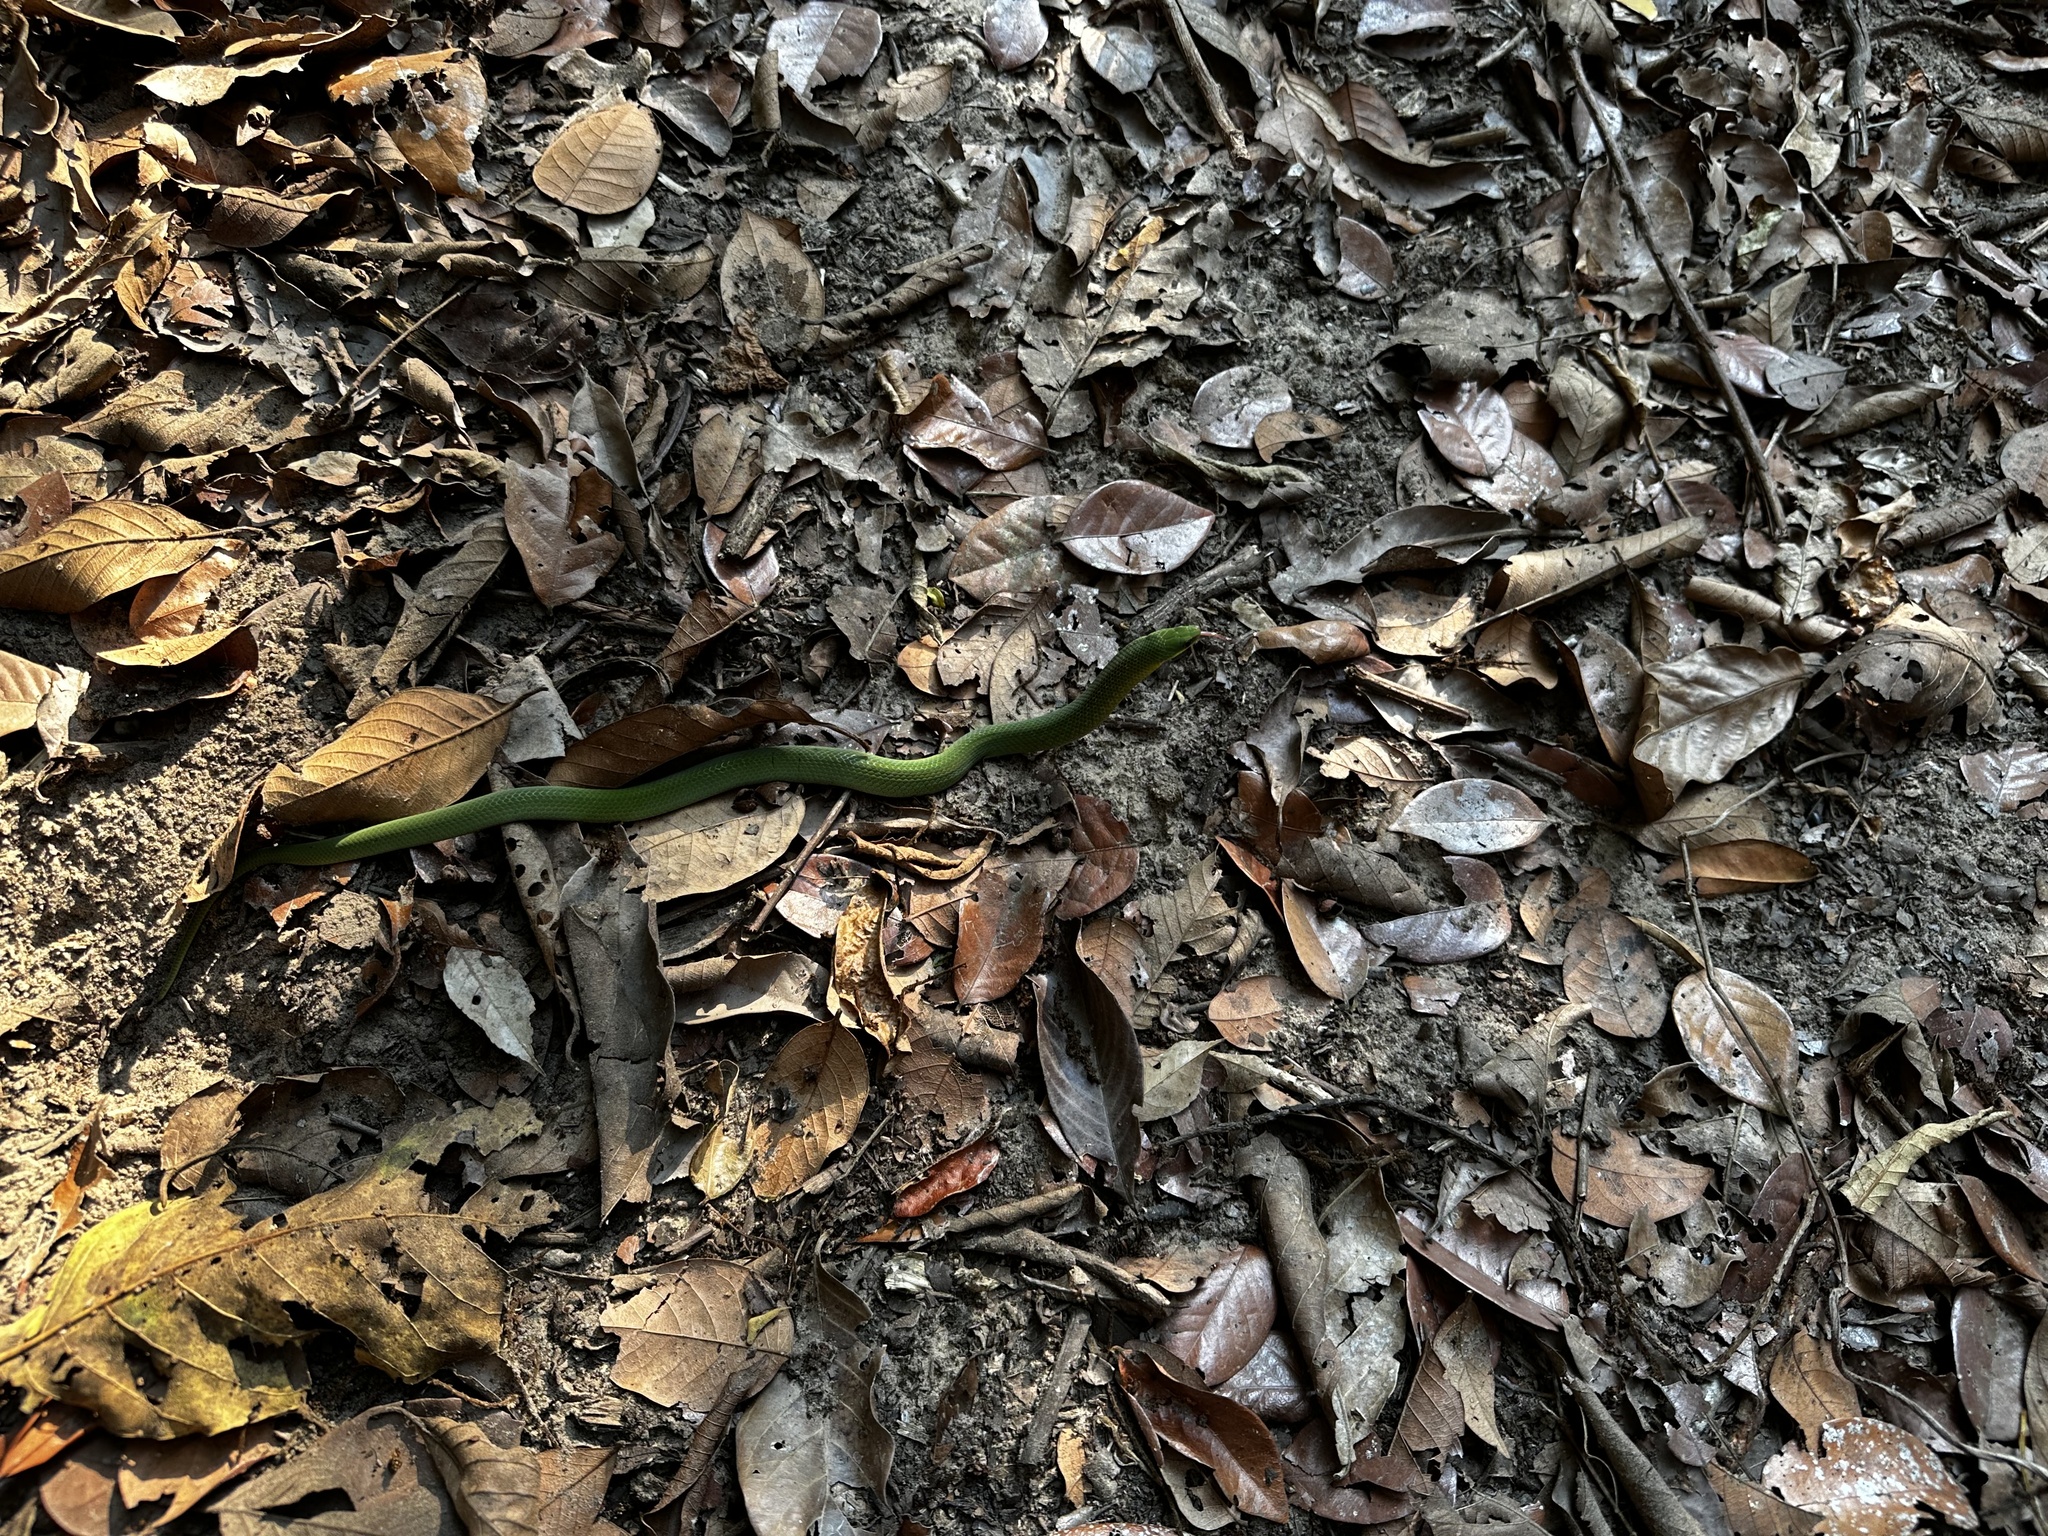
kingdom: Animalia
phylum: Chordata
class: Squamata
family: Colubridae
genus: Erythrolamprus
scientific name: Erythrolamprus typhlus
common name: Blind ground snake
